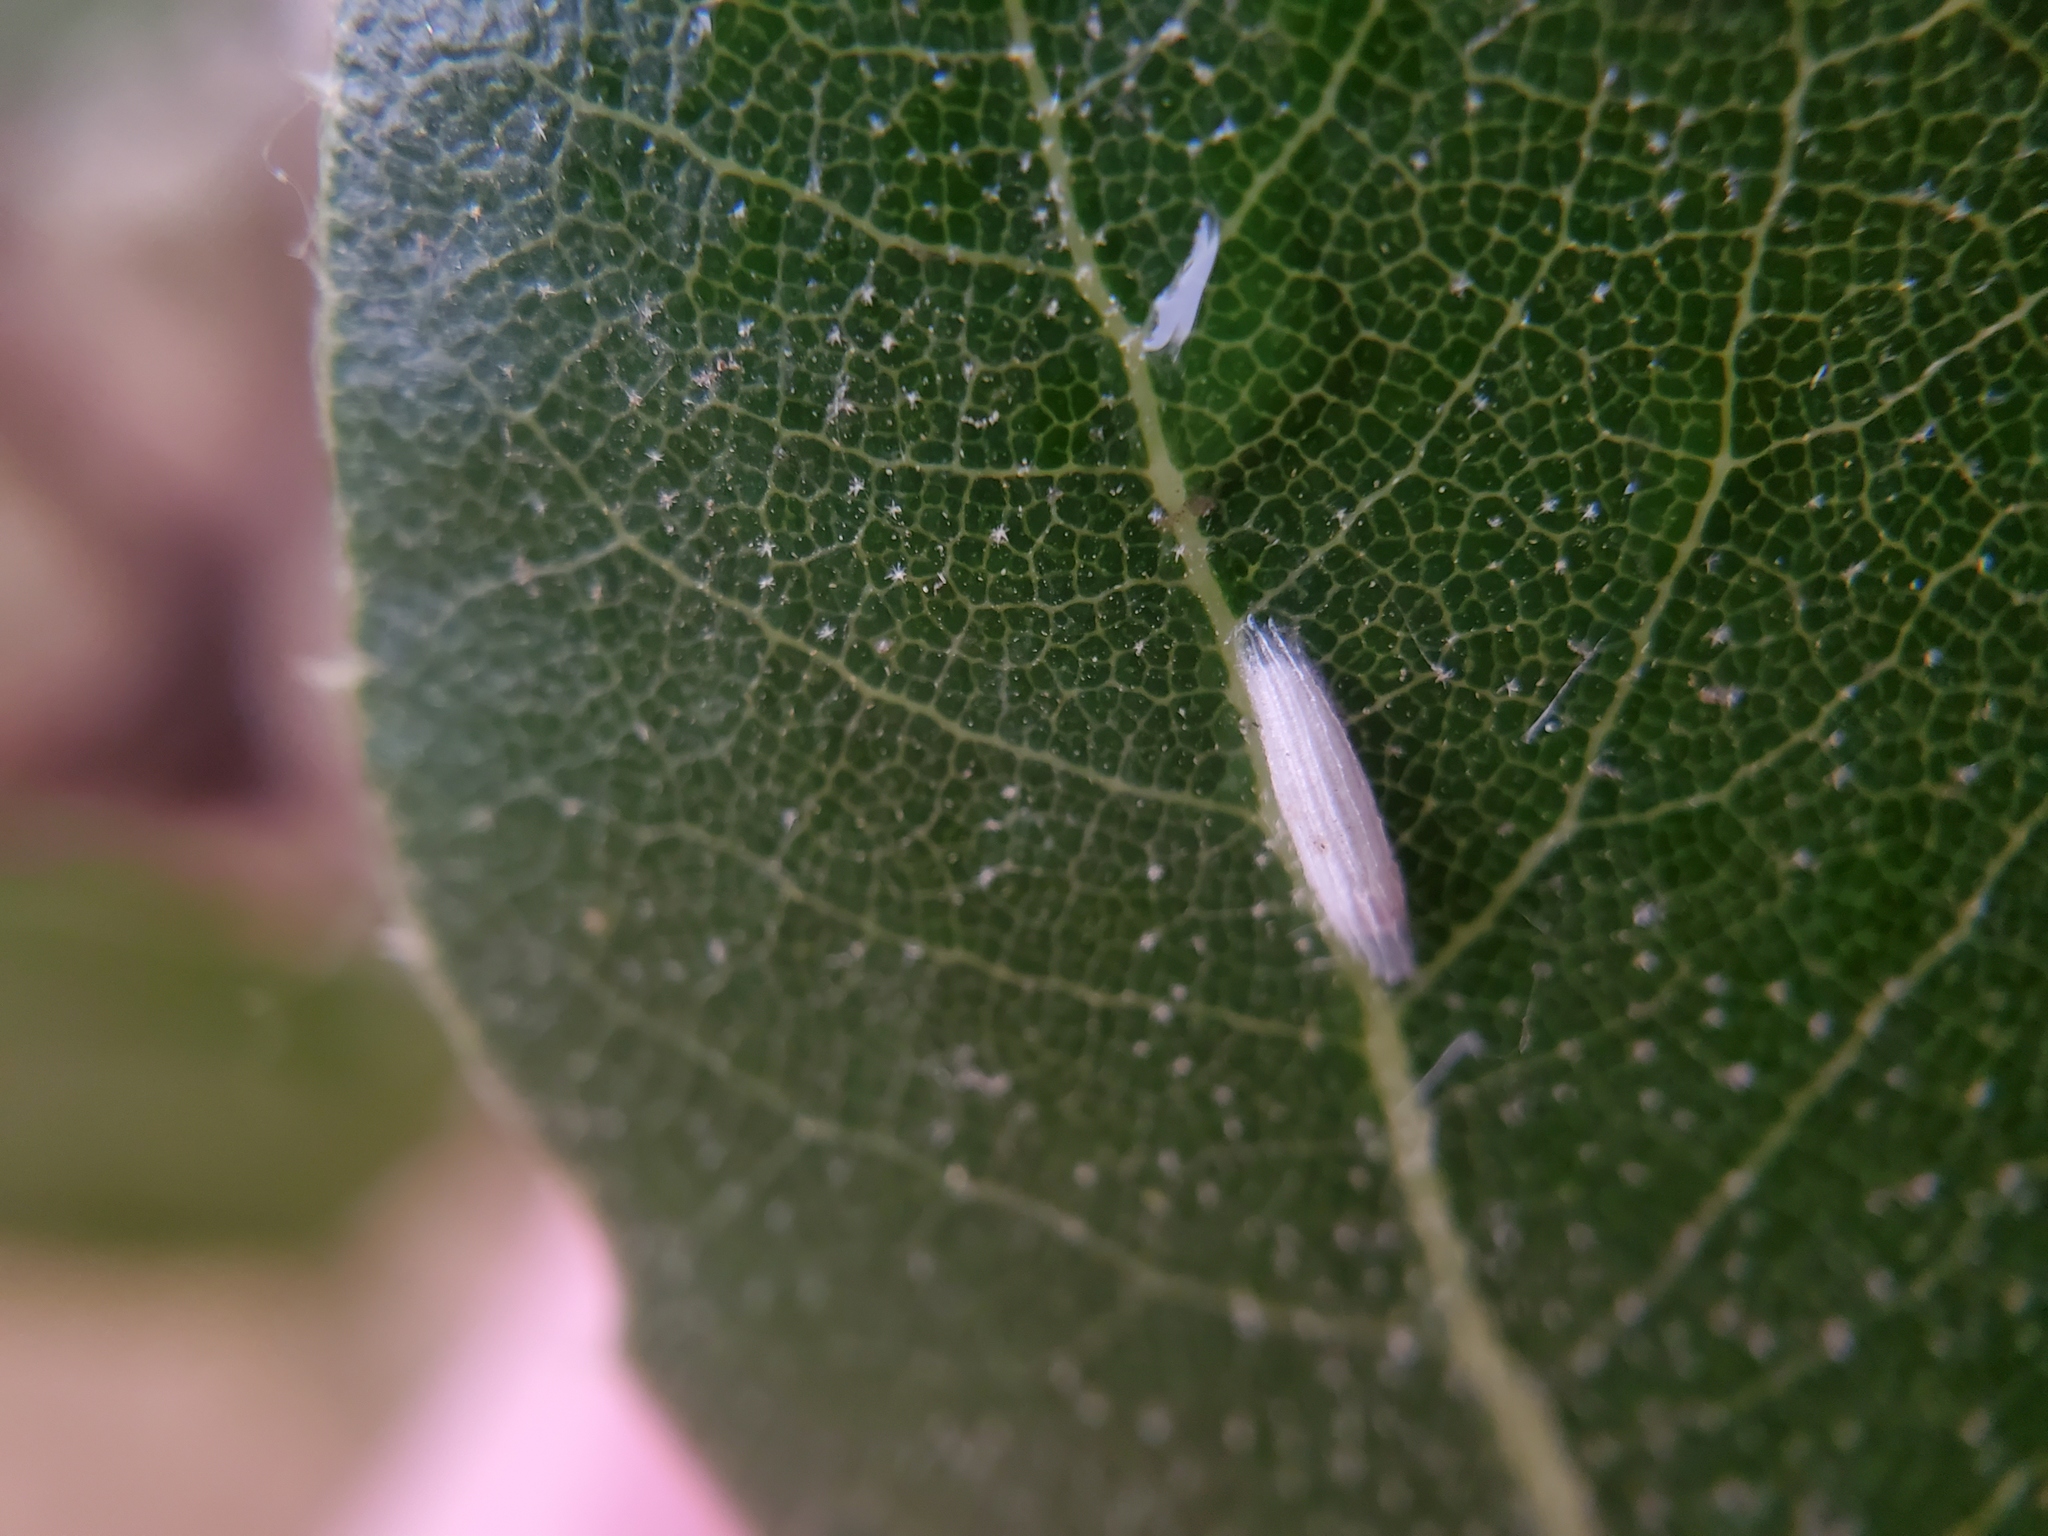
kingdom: Animalia
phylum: Arthropoda
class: Insecta
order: Lepidoptera
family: Bucculatricidae
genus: Bucculatrix
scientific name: Bucculatrix albertiella
